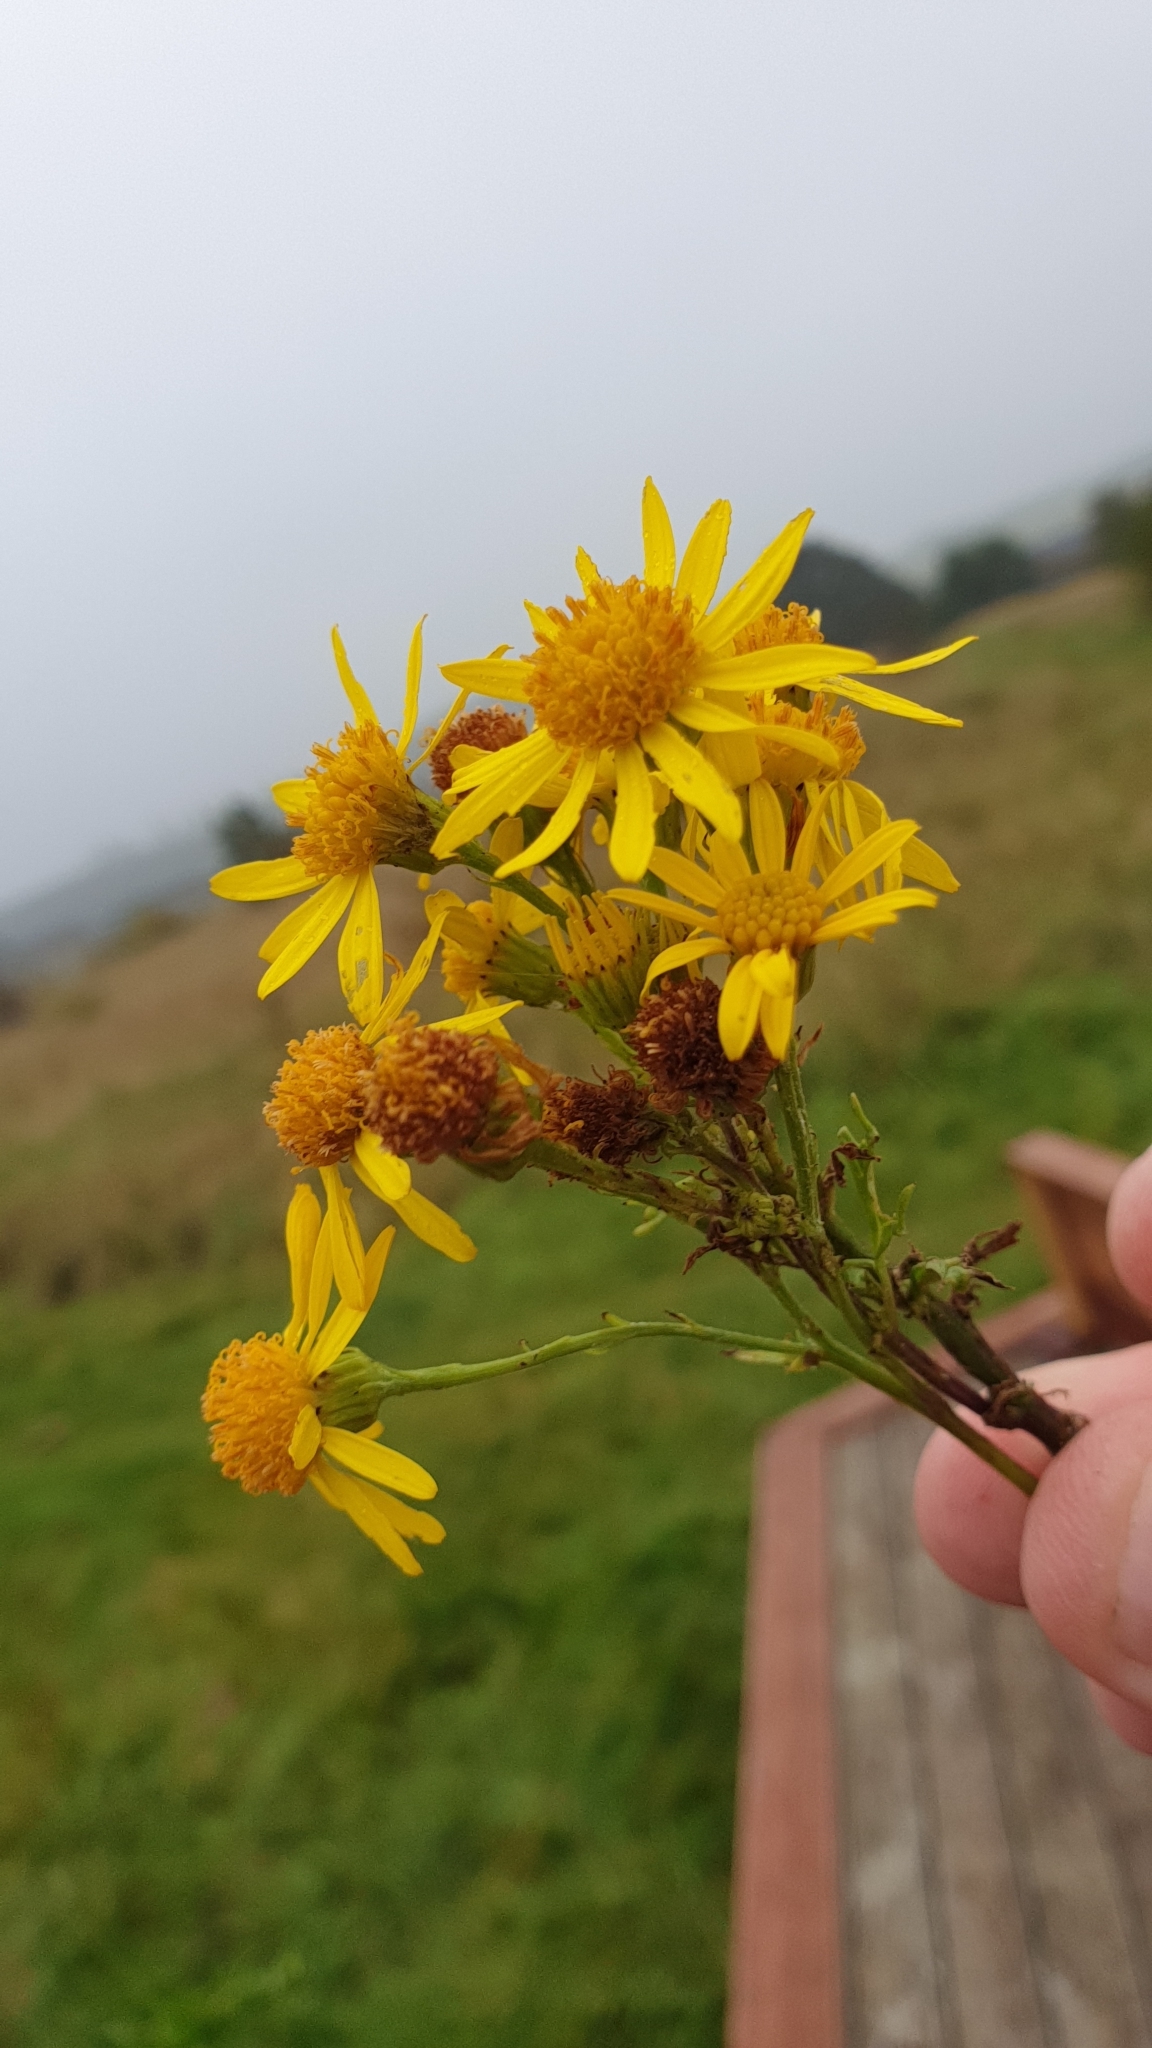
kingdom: Plantae
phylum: Tracheophyta
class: Magnoliopsida
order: Asterales
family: Asteraceae
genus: Jacobaea
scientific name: Jacobaea vulgaris
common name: Stinking willie
